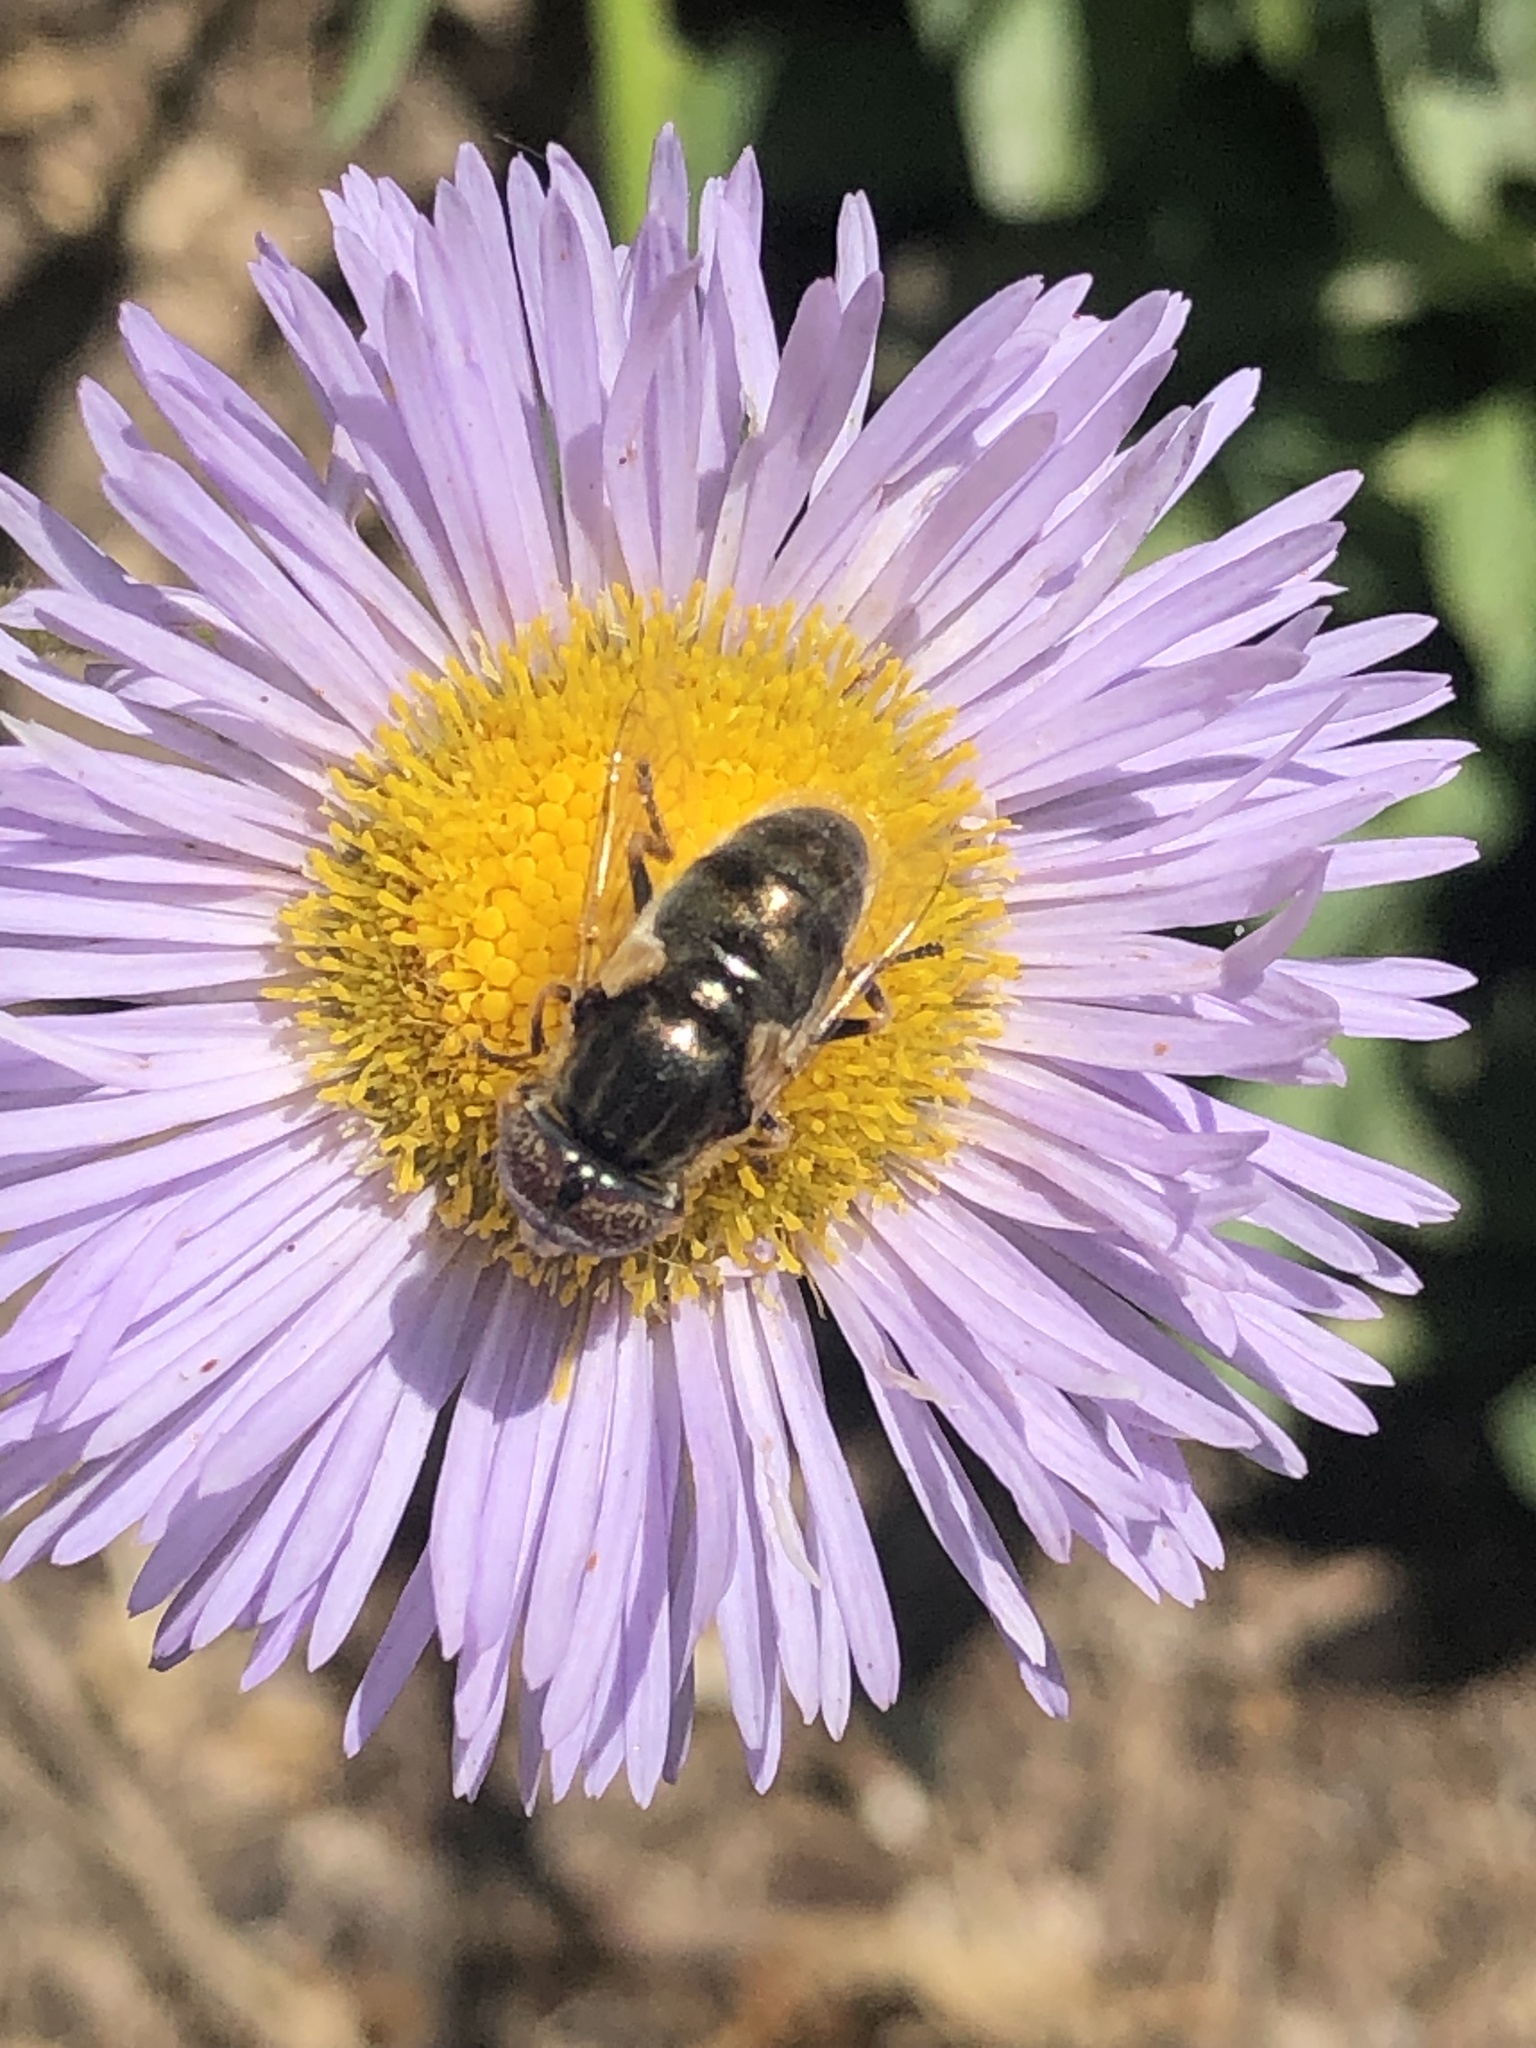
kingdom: Animalia
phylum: Arthropoda
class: Insecta
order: Diptera
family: Syrphidae
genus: Eristalinus
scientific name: Eristalinus aeneus
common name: Syrphid fly
